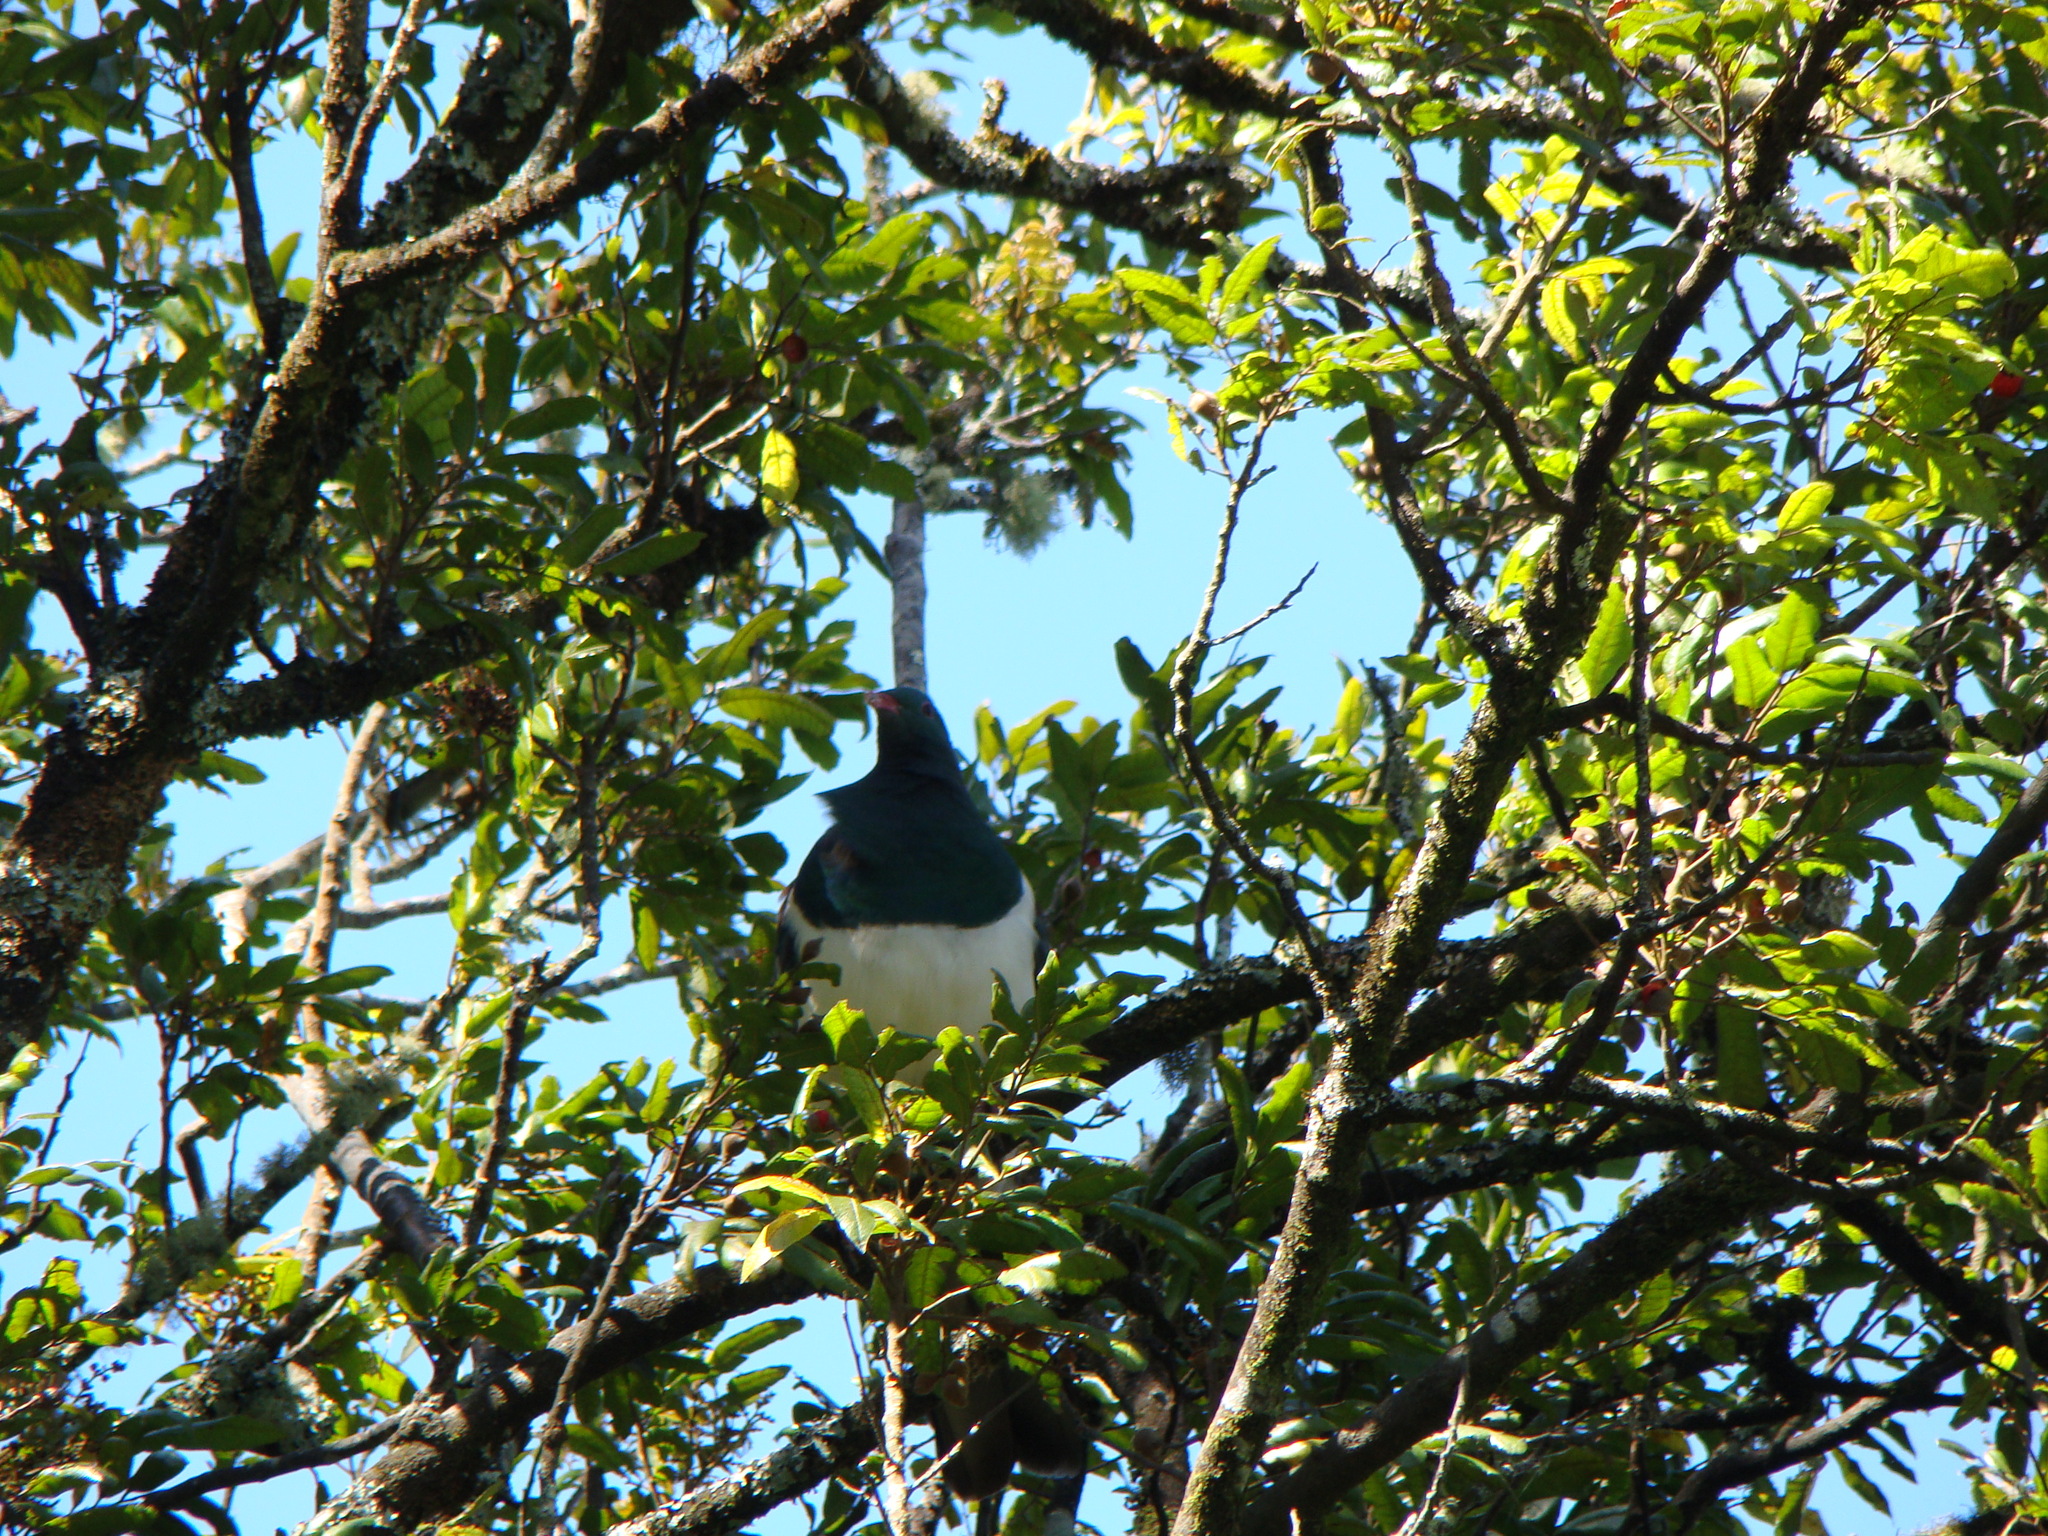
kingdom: Animalia
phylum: Chordata
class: Aves
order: Columbiformes
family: Columbidae
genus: Hemiphaga
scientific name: Hemiphaga novaeseelandiae
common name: New zealand pigeon
